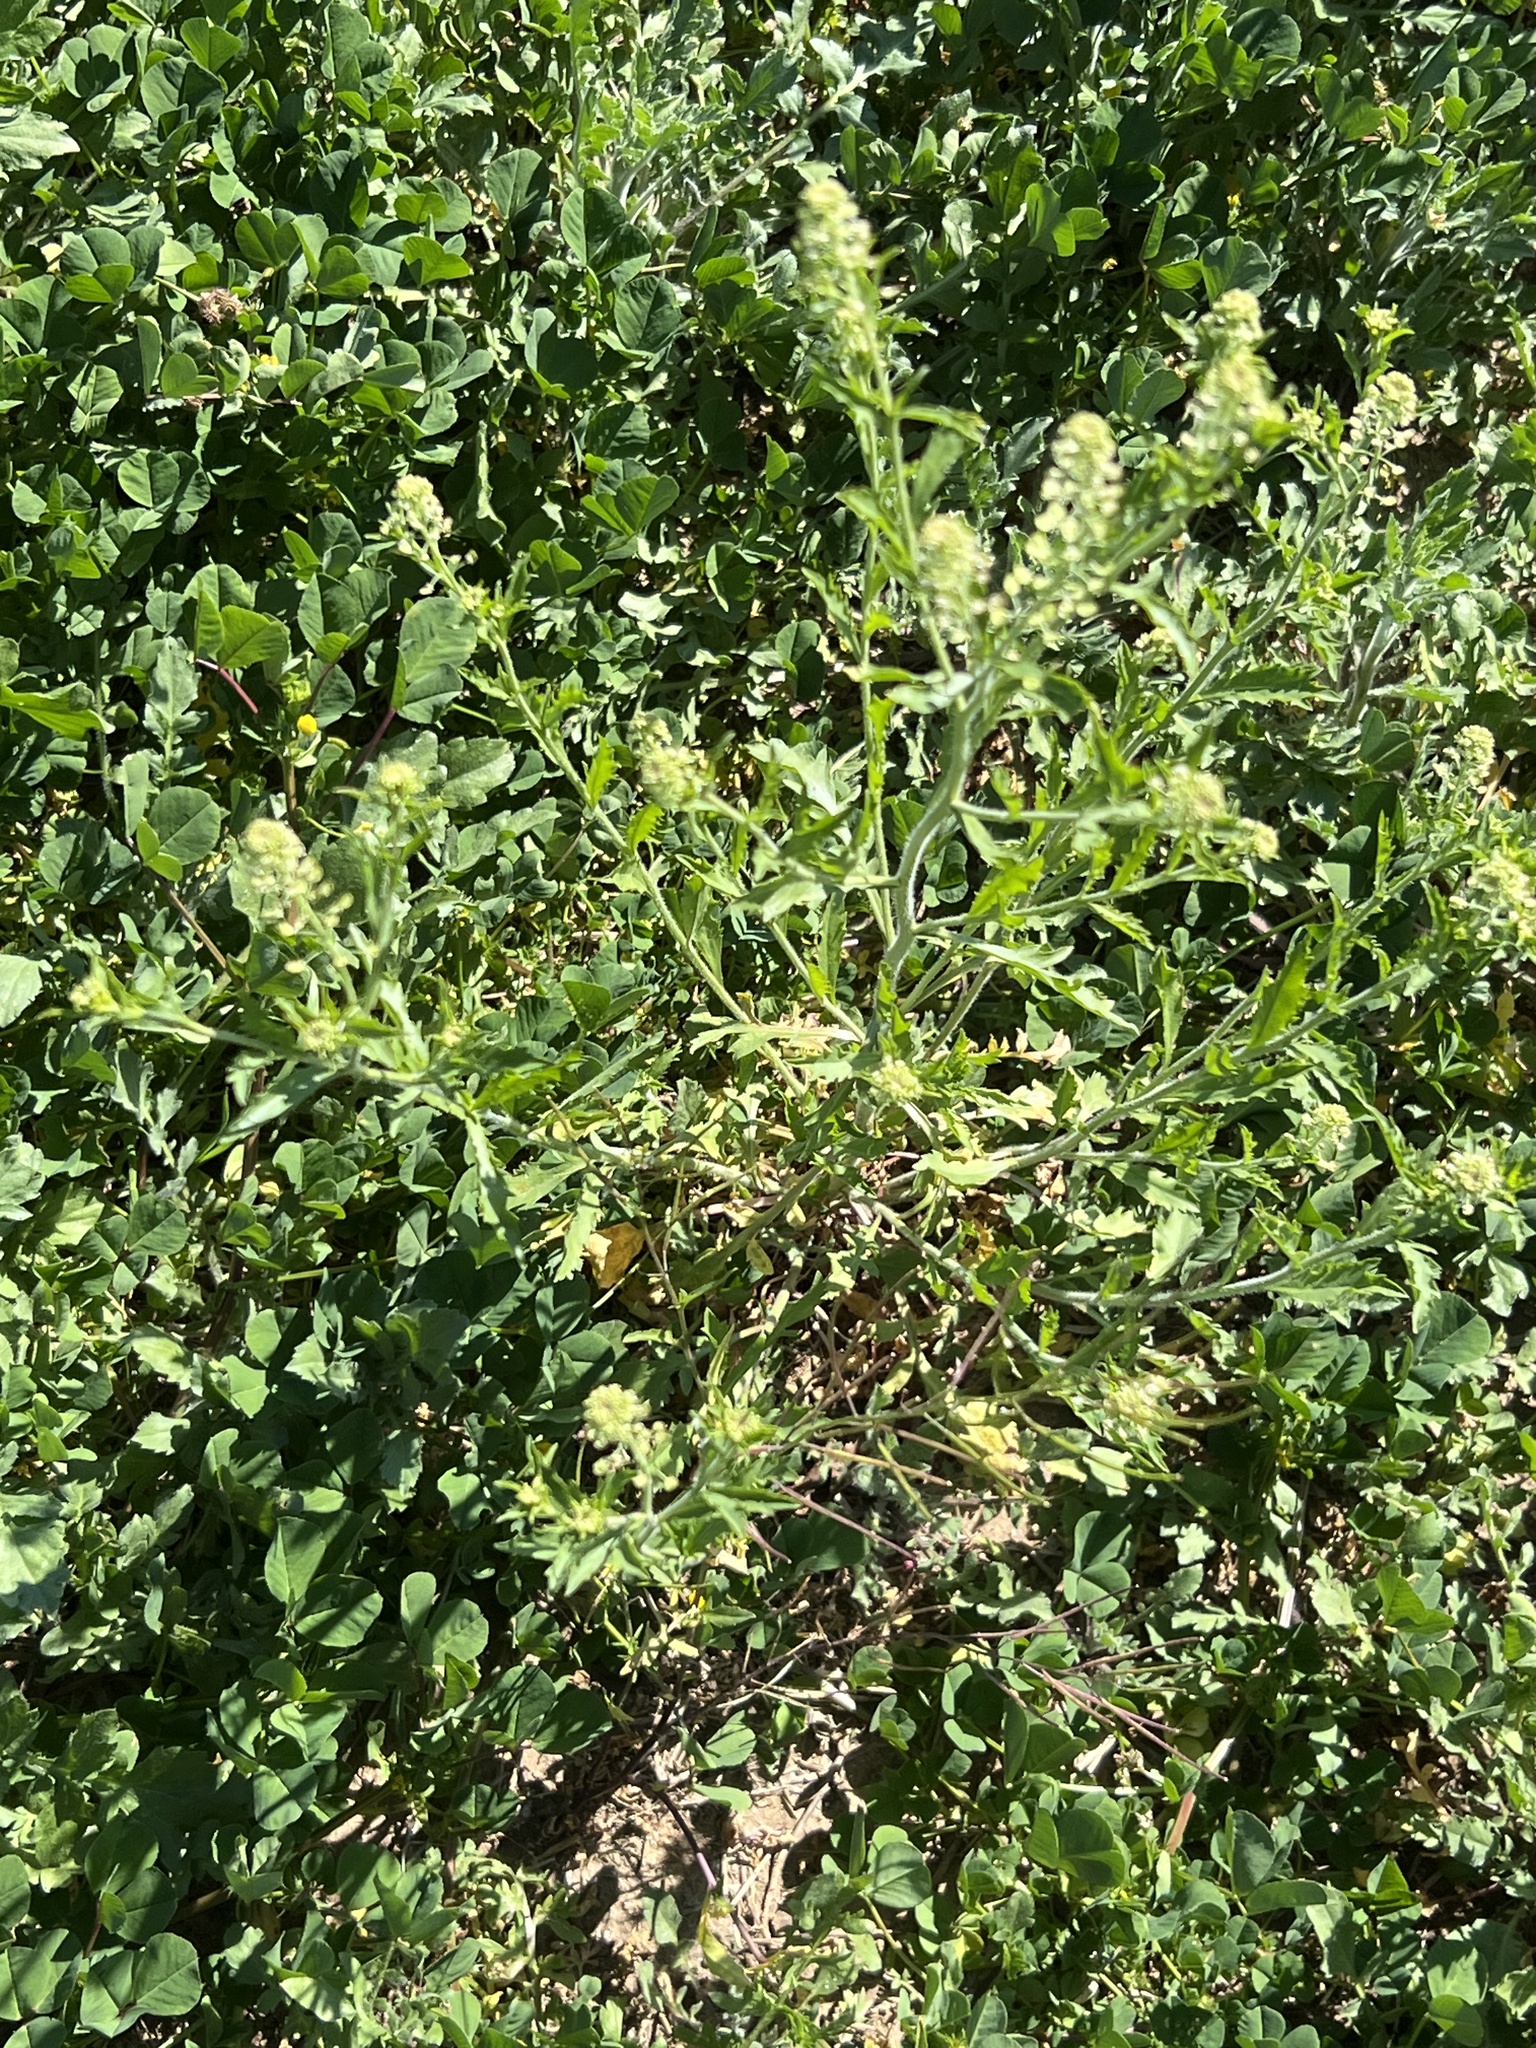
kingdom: Plantae
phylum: Tracheophyta
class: Magnoliopsida
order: Asterales
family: Asteraceae
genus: Ambrosia
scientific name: Ambrosia psilostachya
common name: Perennial ragweed
